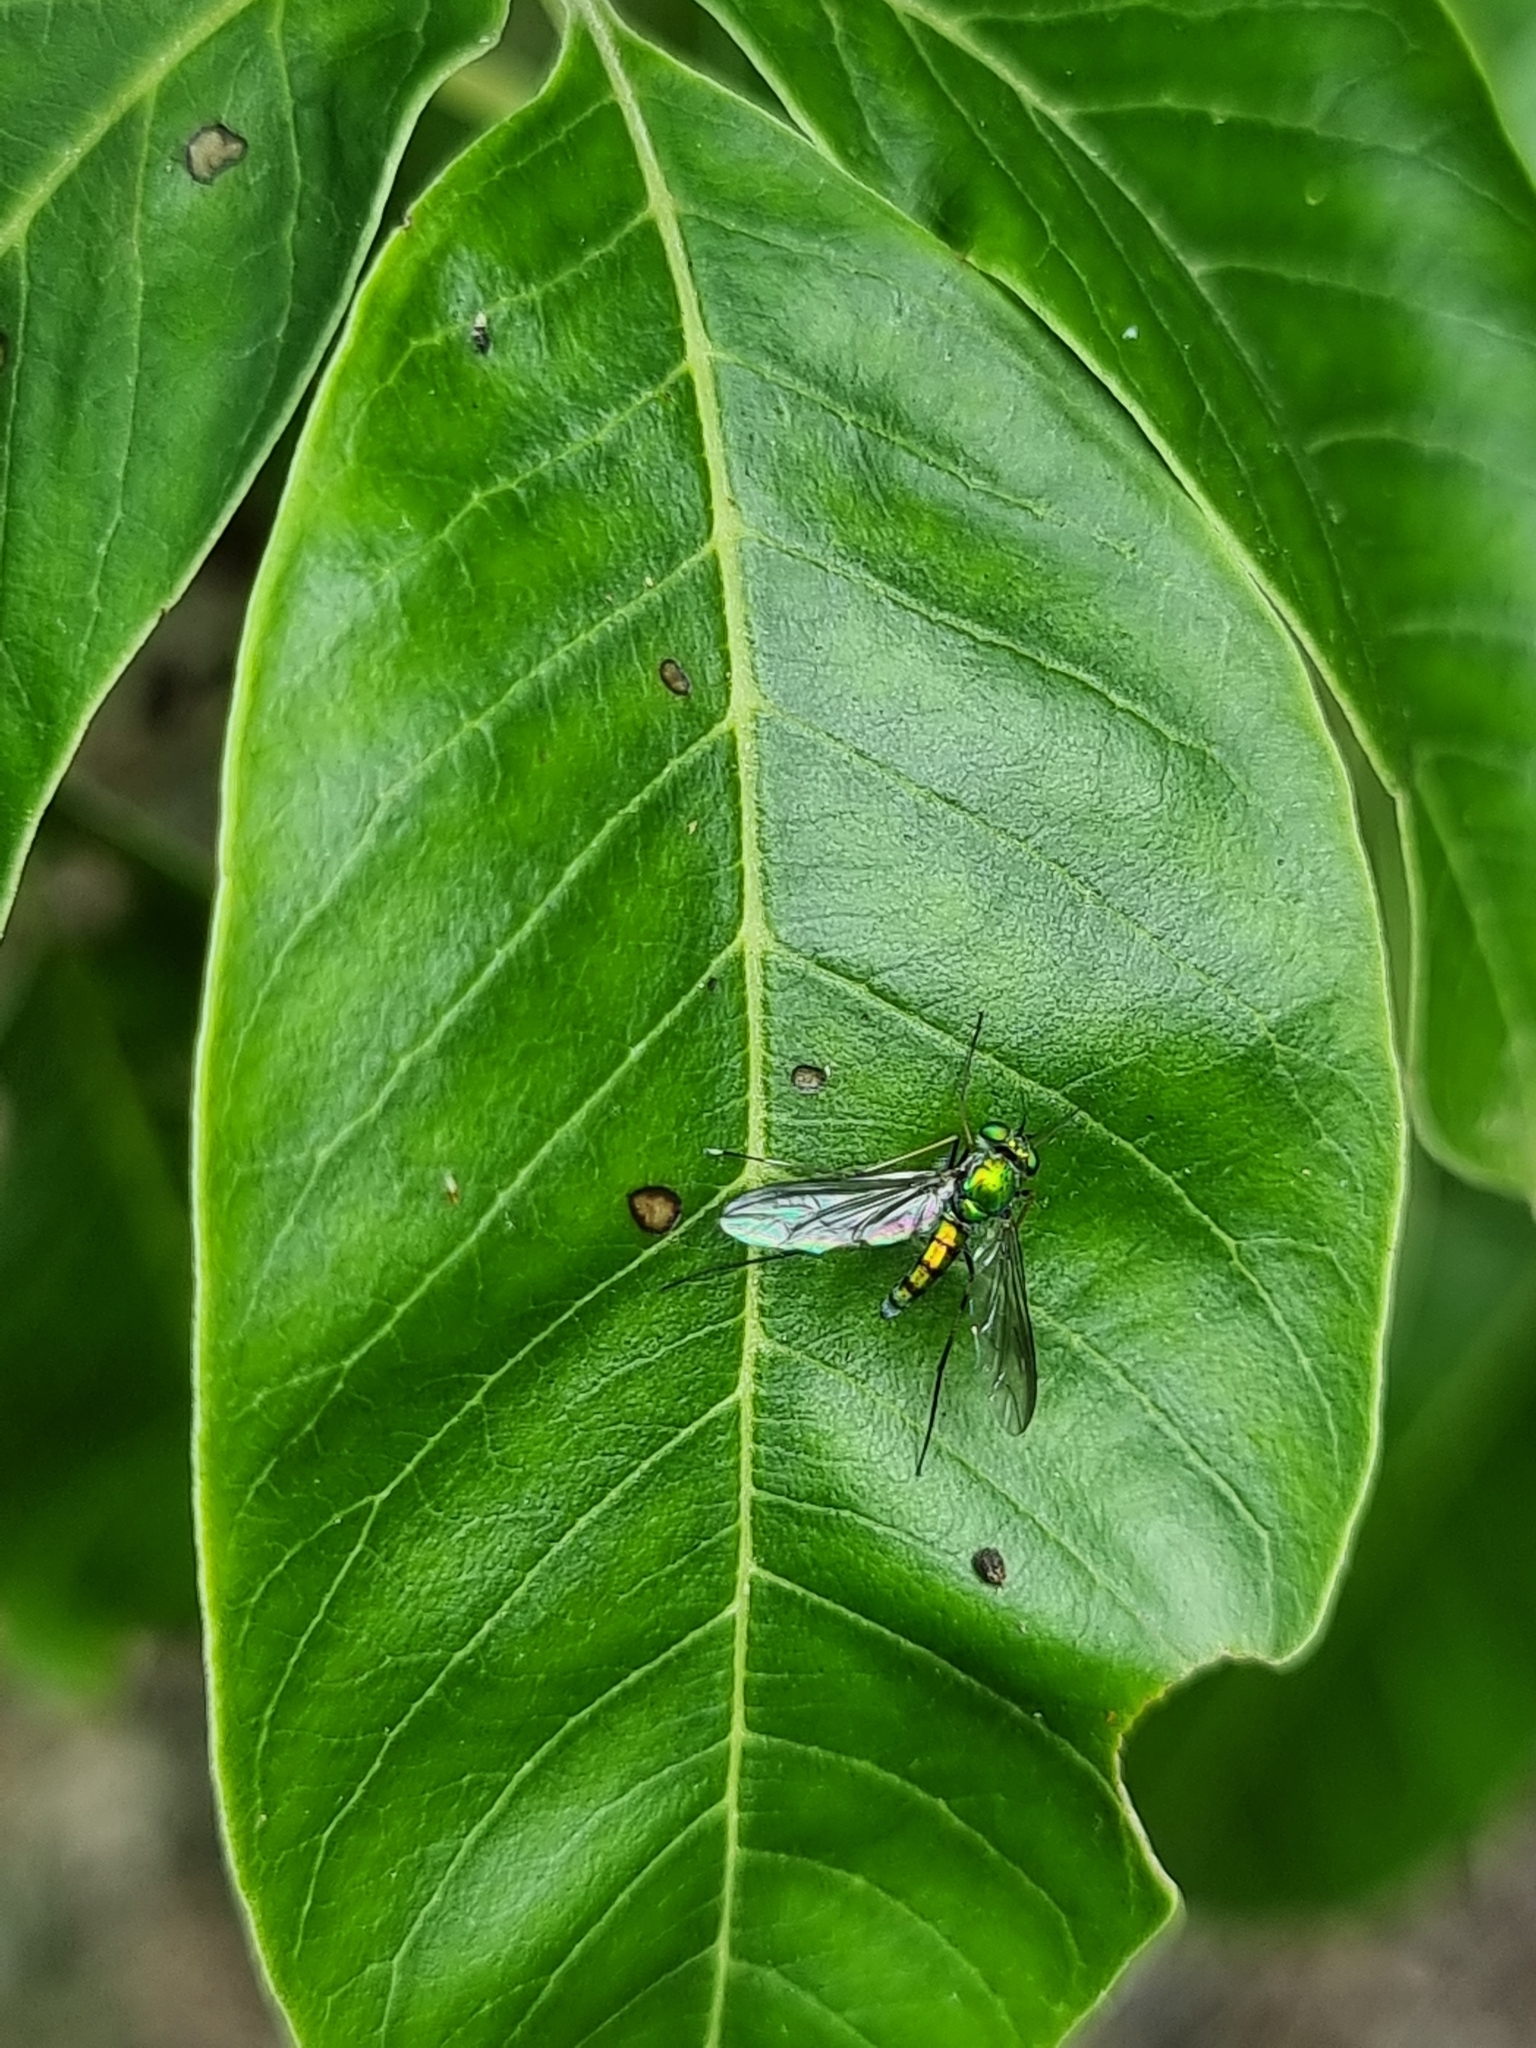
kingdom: Animalia
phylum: Arthropoda
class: Insecta
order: Diptera
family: Dolichopodidae
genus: Chrysosoma
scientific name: Chrysosoma leucopogon
